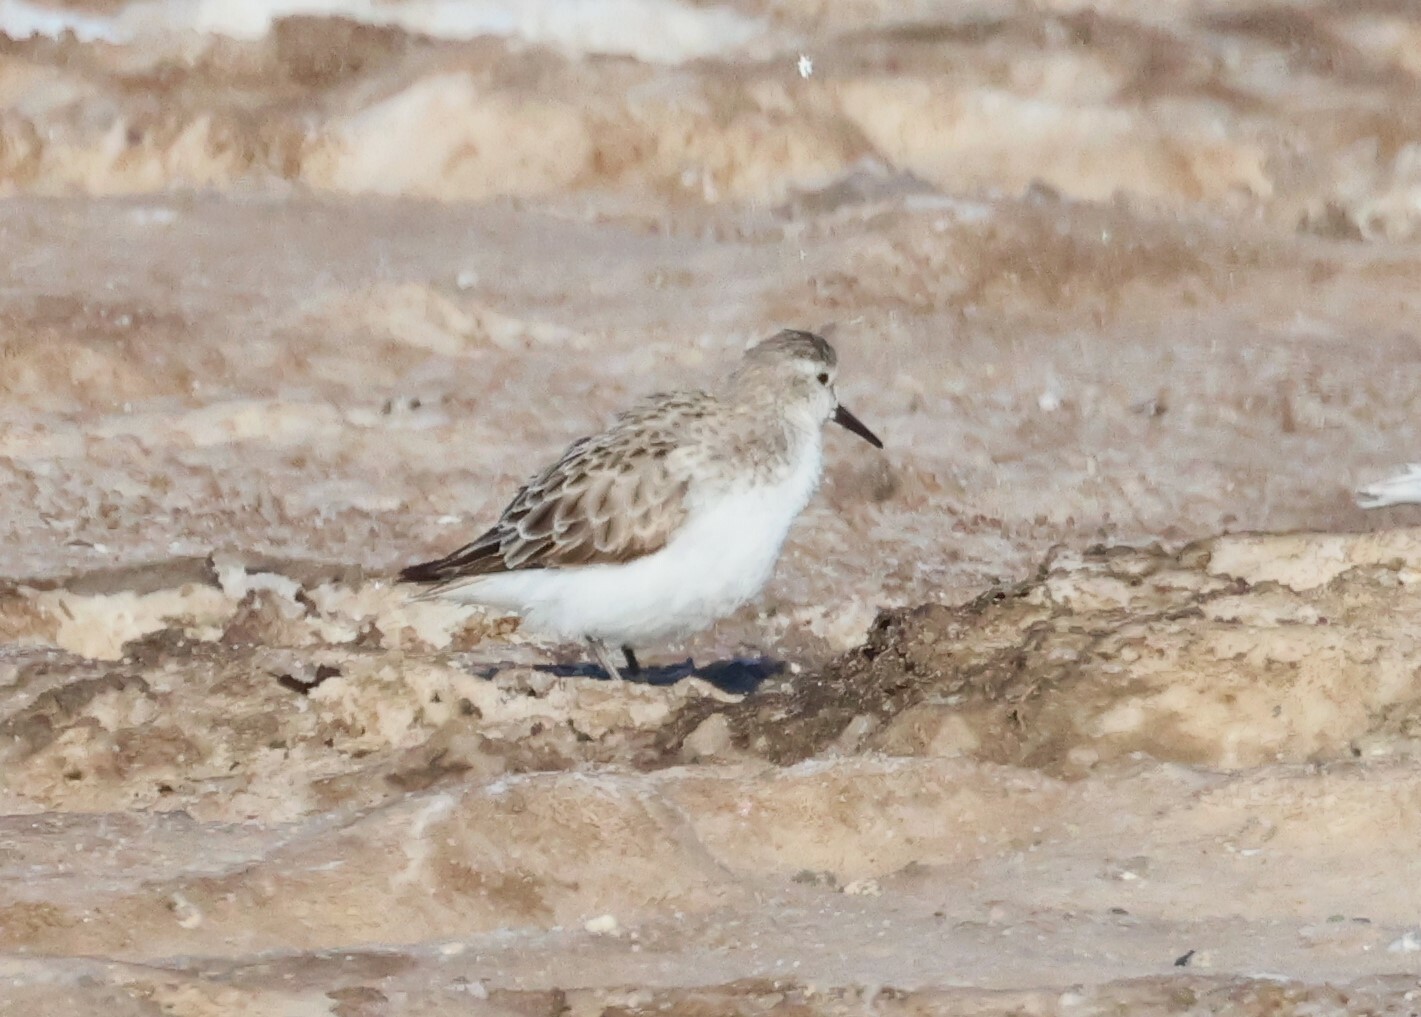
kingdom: Animalia
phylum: Chordata
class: Aves
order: Charadriiformes
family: Scolopacidae
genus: Calidris
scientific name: Calidris minuta
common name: Little stint
